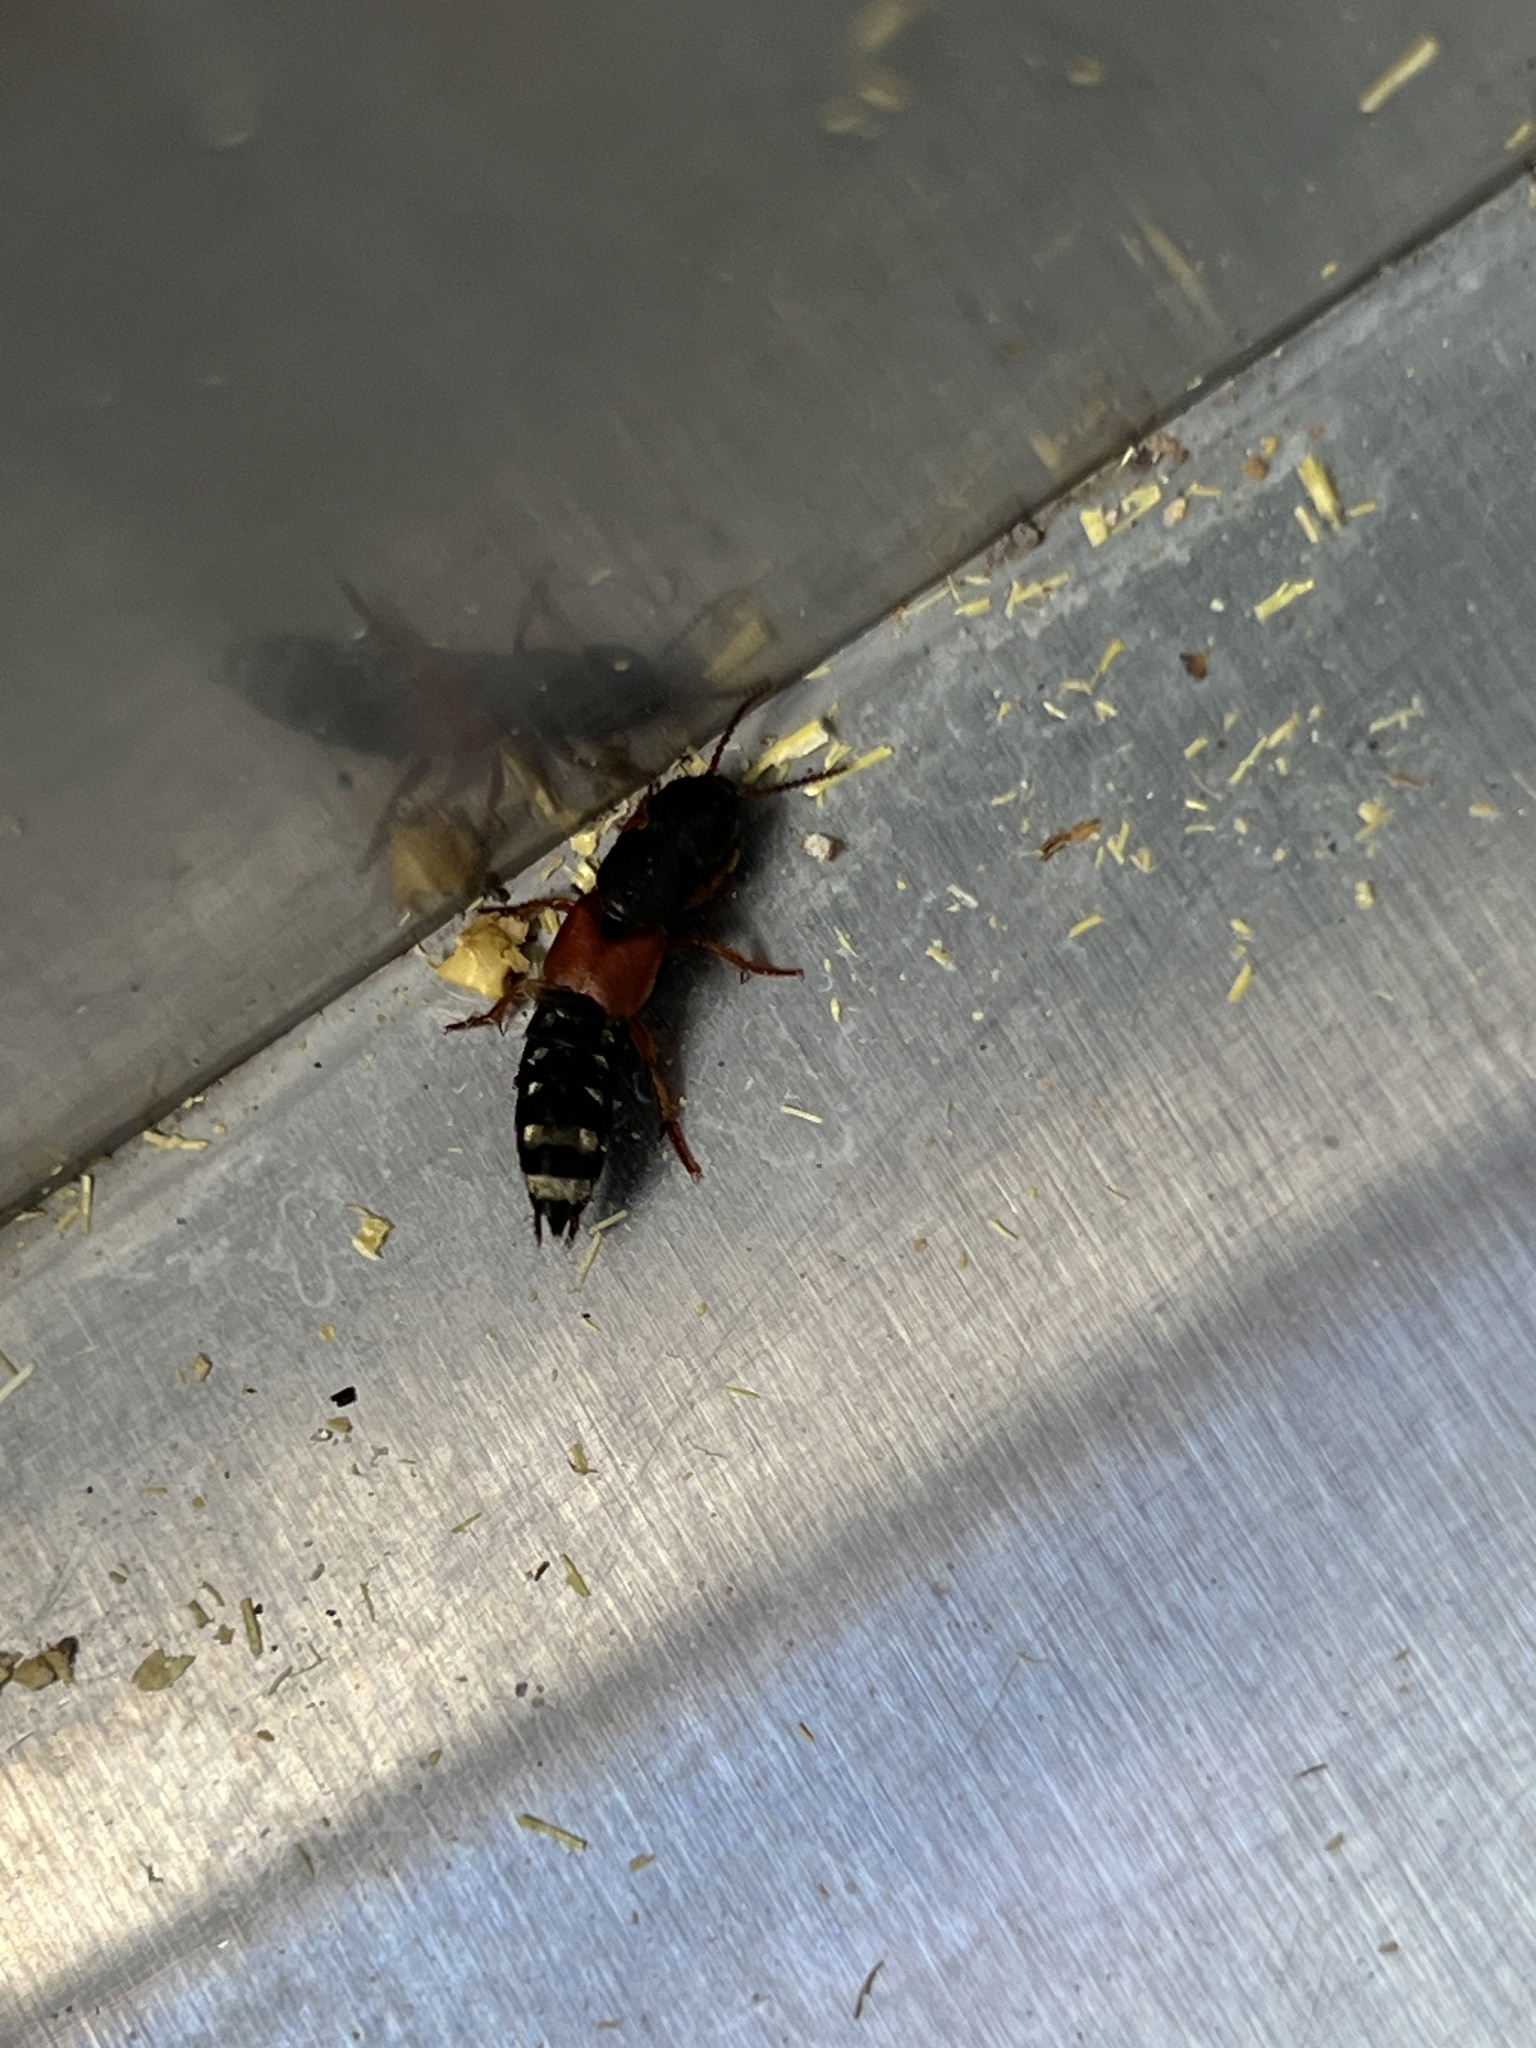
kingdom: Animalia
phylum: Arthropoda
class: Insecta
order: Coleoptera
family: Staphylinidae
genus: Platydracus
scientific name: Platydracus stercorarius
